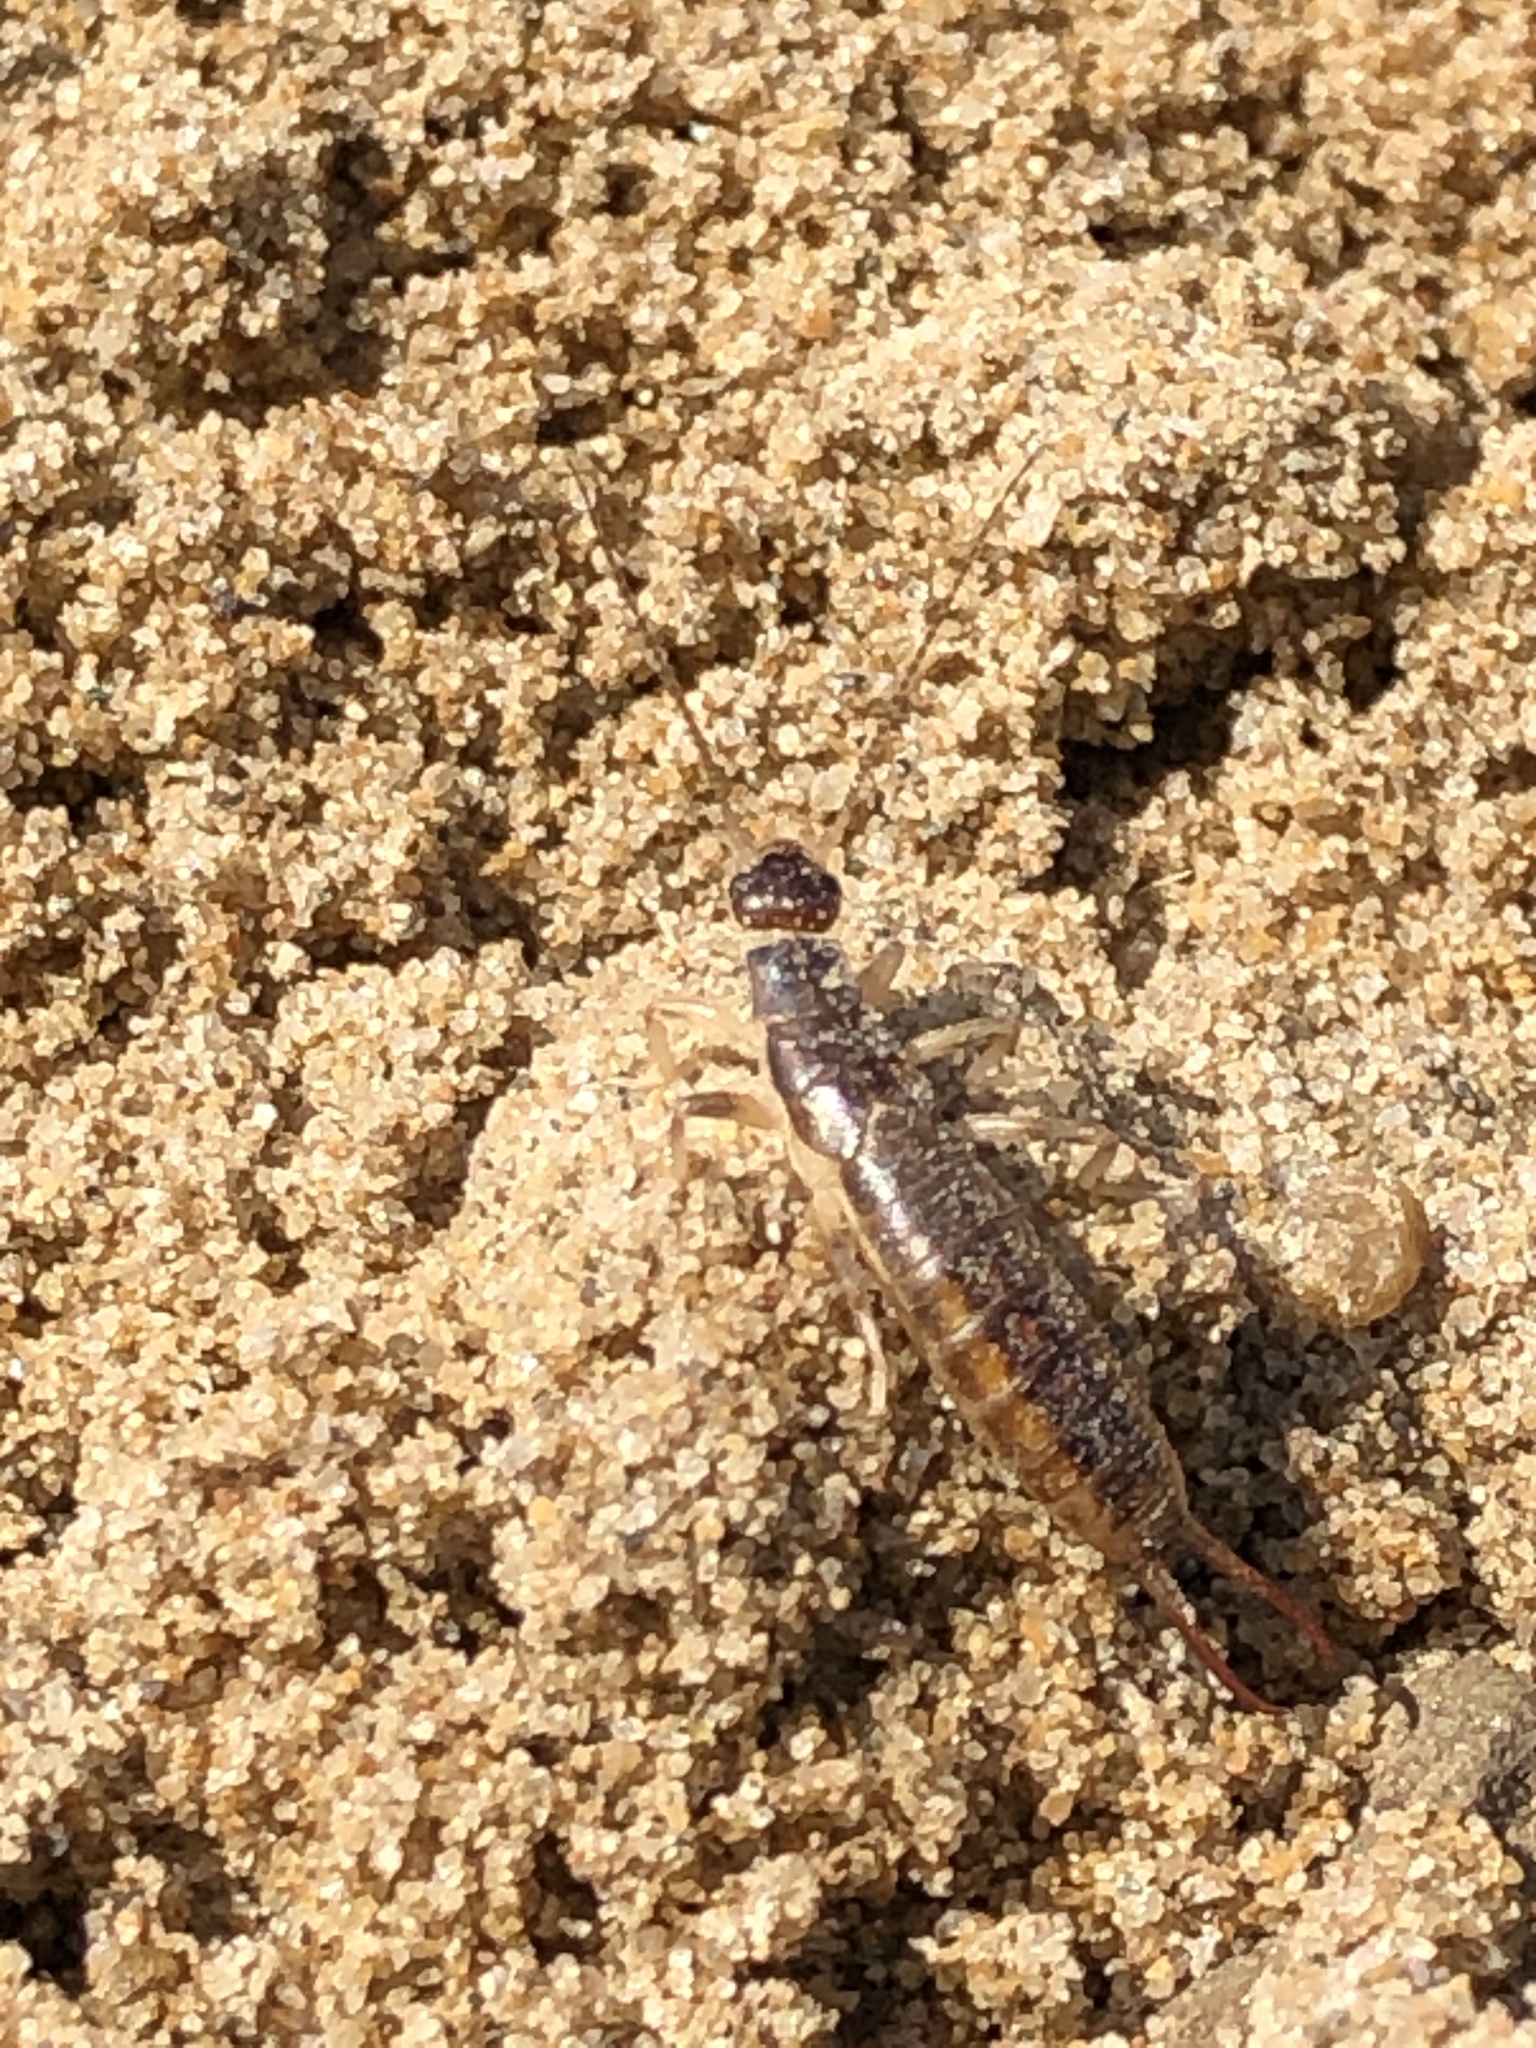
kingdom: Animalia
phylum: Arthropoda
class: Insecta
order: Dermaptera
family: Labiduridae
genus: Labidura
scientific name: Labidura riparia
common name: Striped earwig
